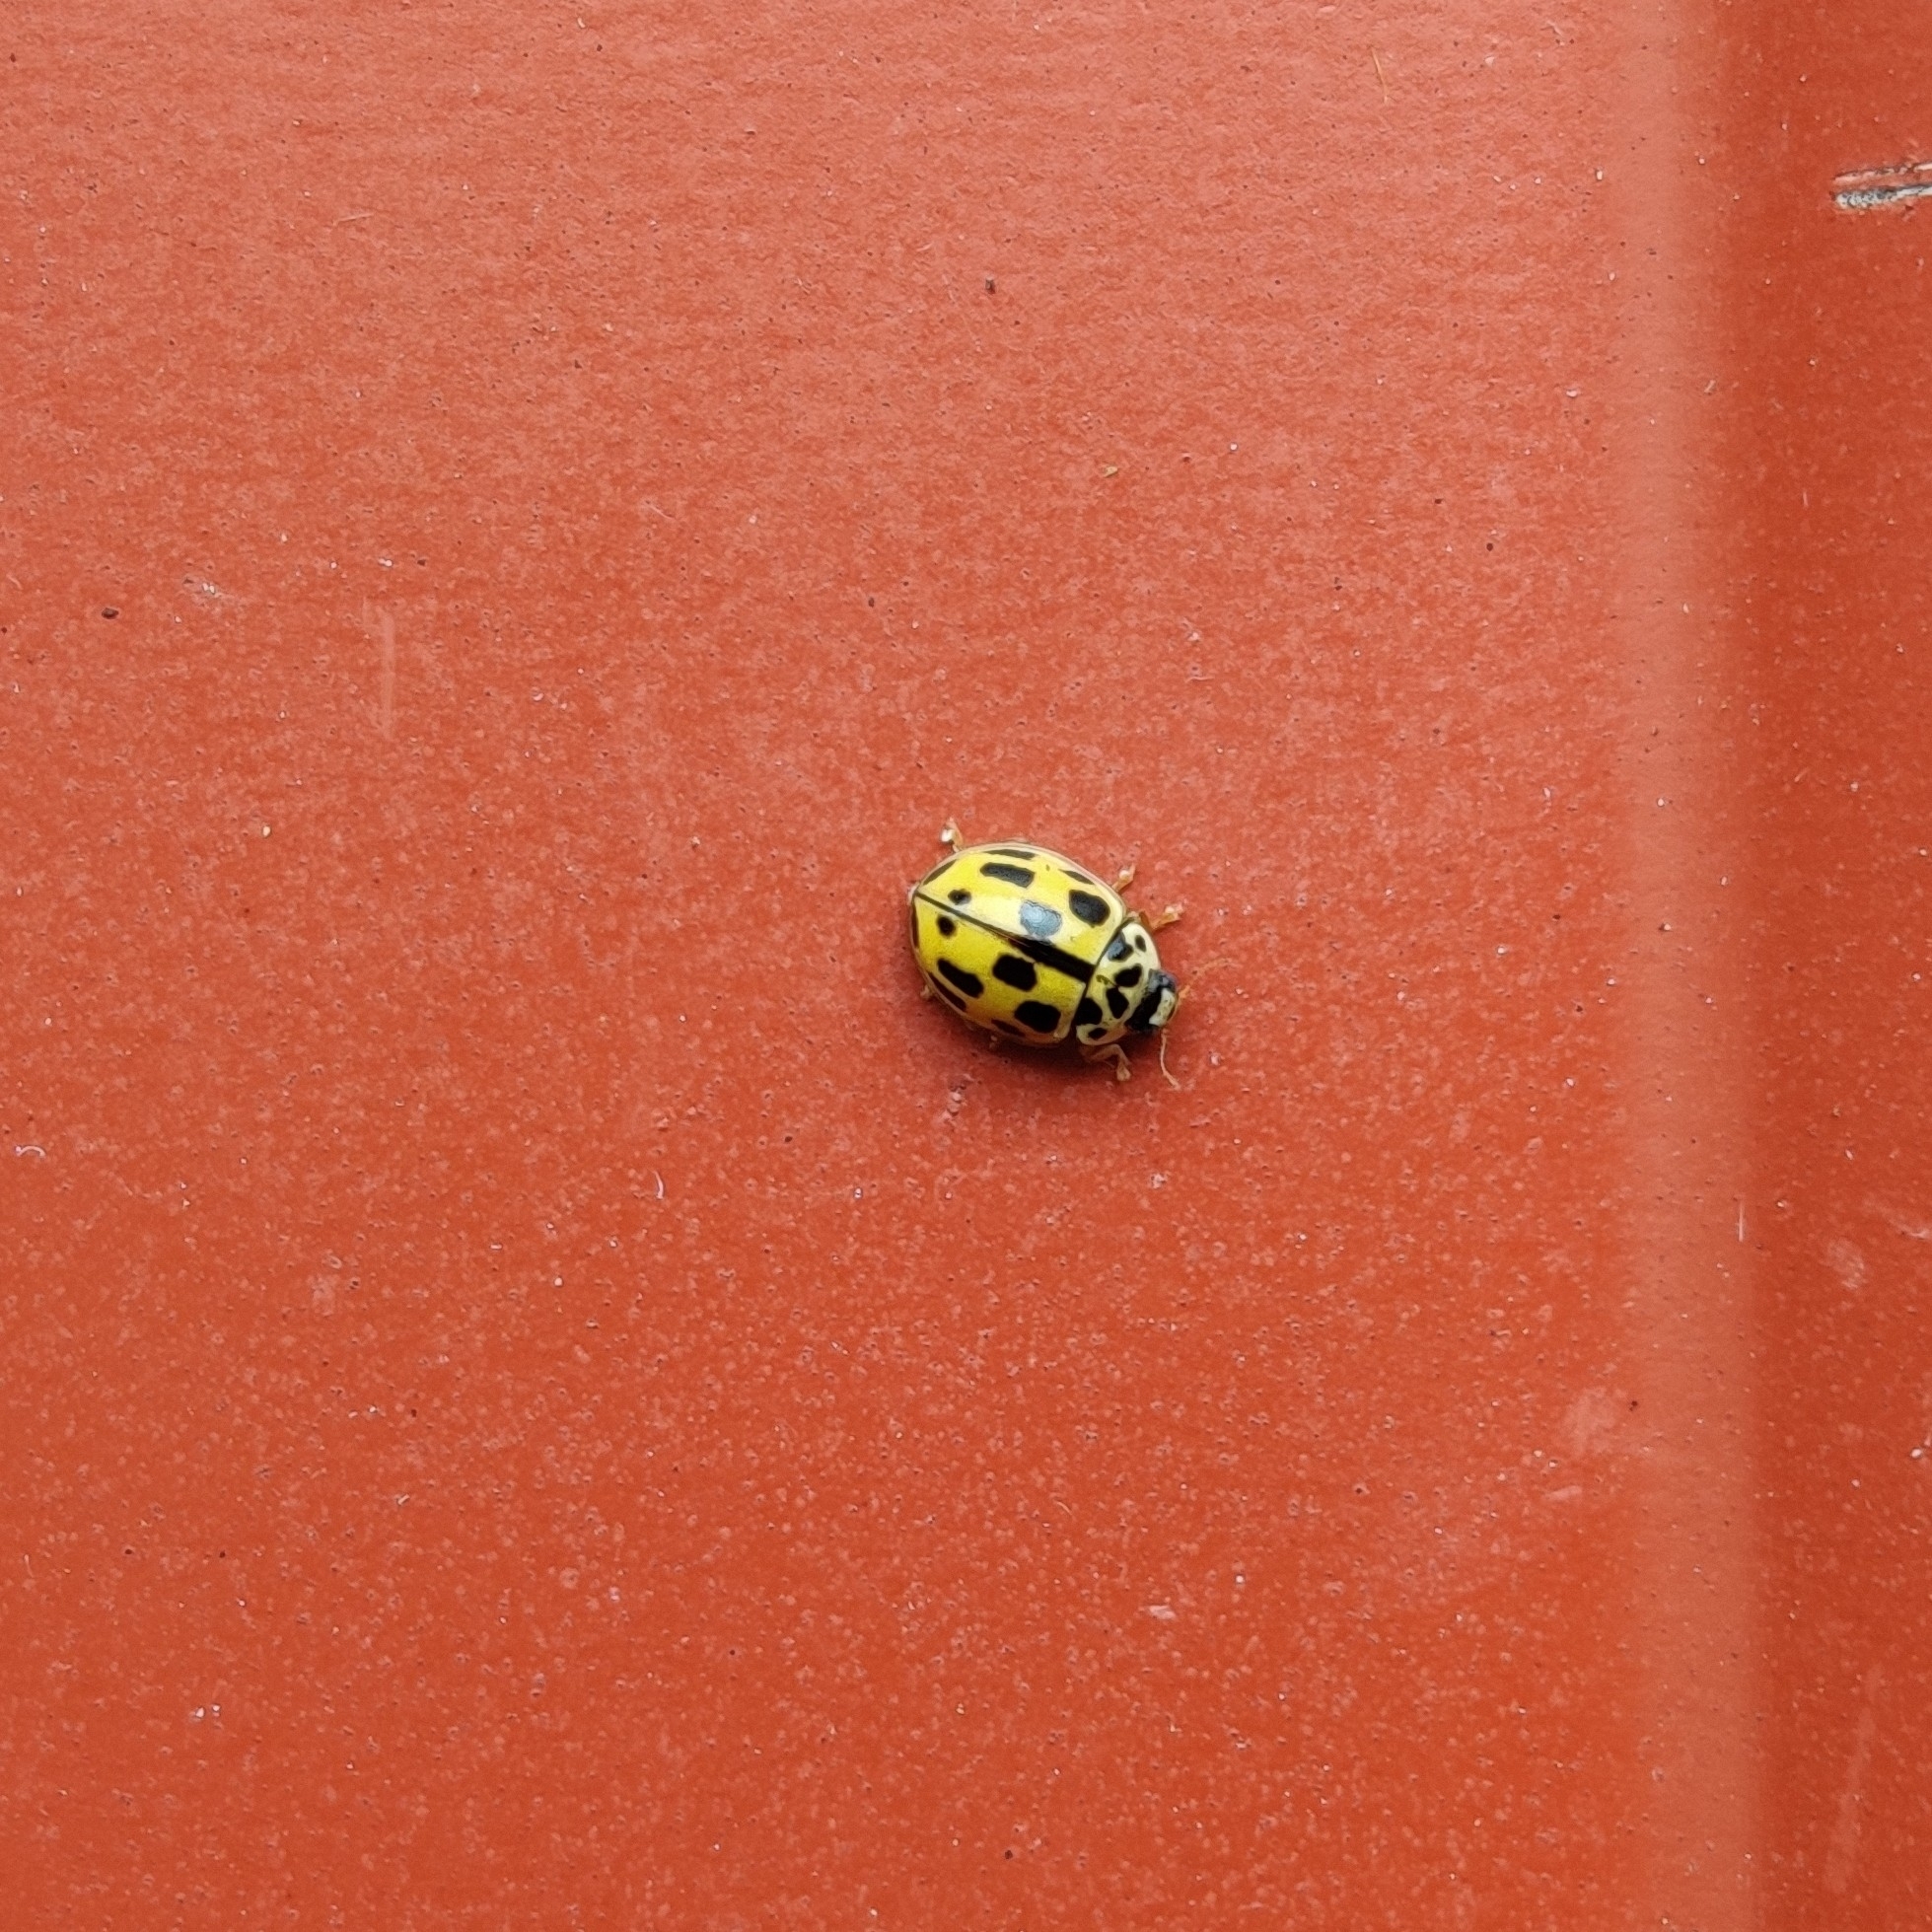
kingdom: Animalia
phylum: Arthropoda
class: Insecta
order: Coleoptera
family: Coccinellidae
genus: Propylaea
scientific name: Propylaea quatuordecimpunctata
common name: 14-spotted ladybird beetle
